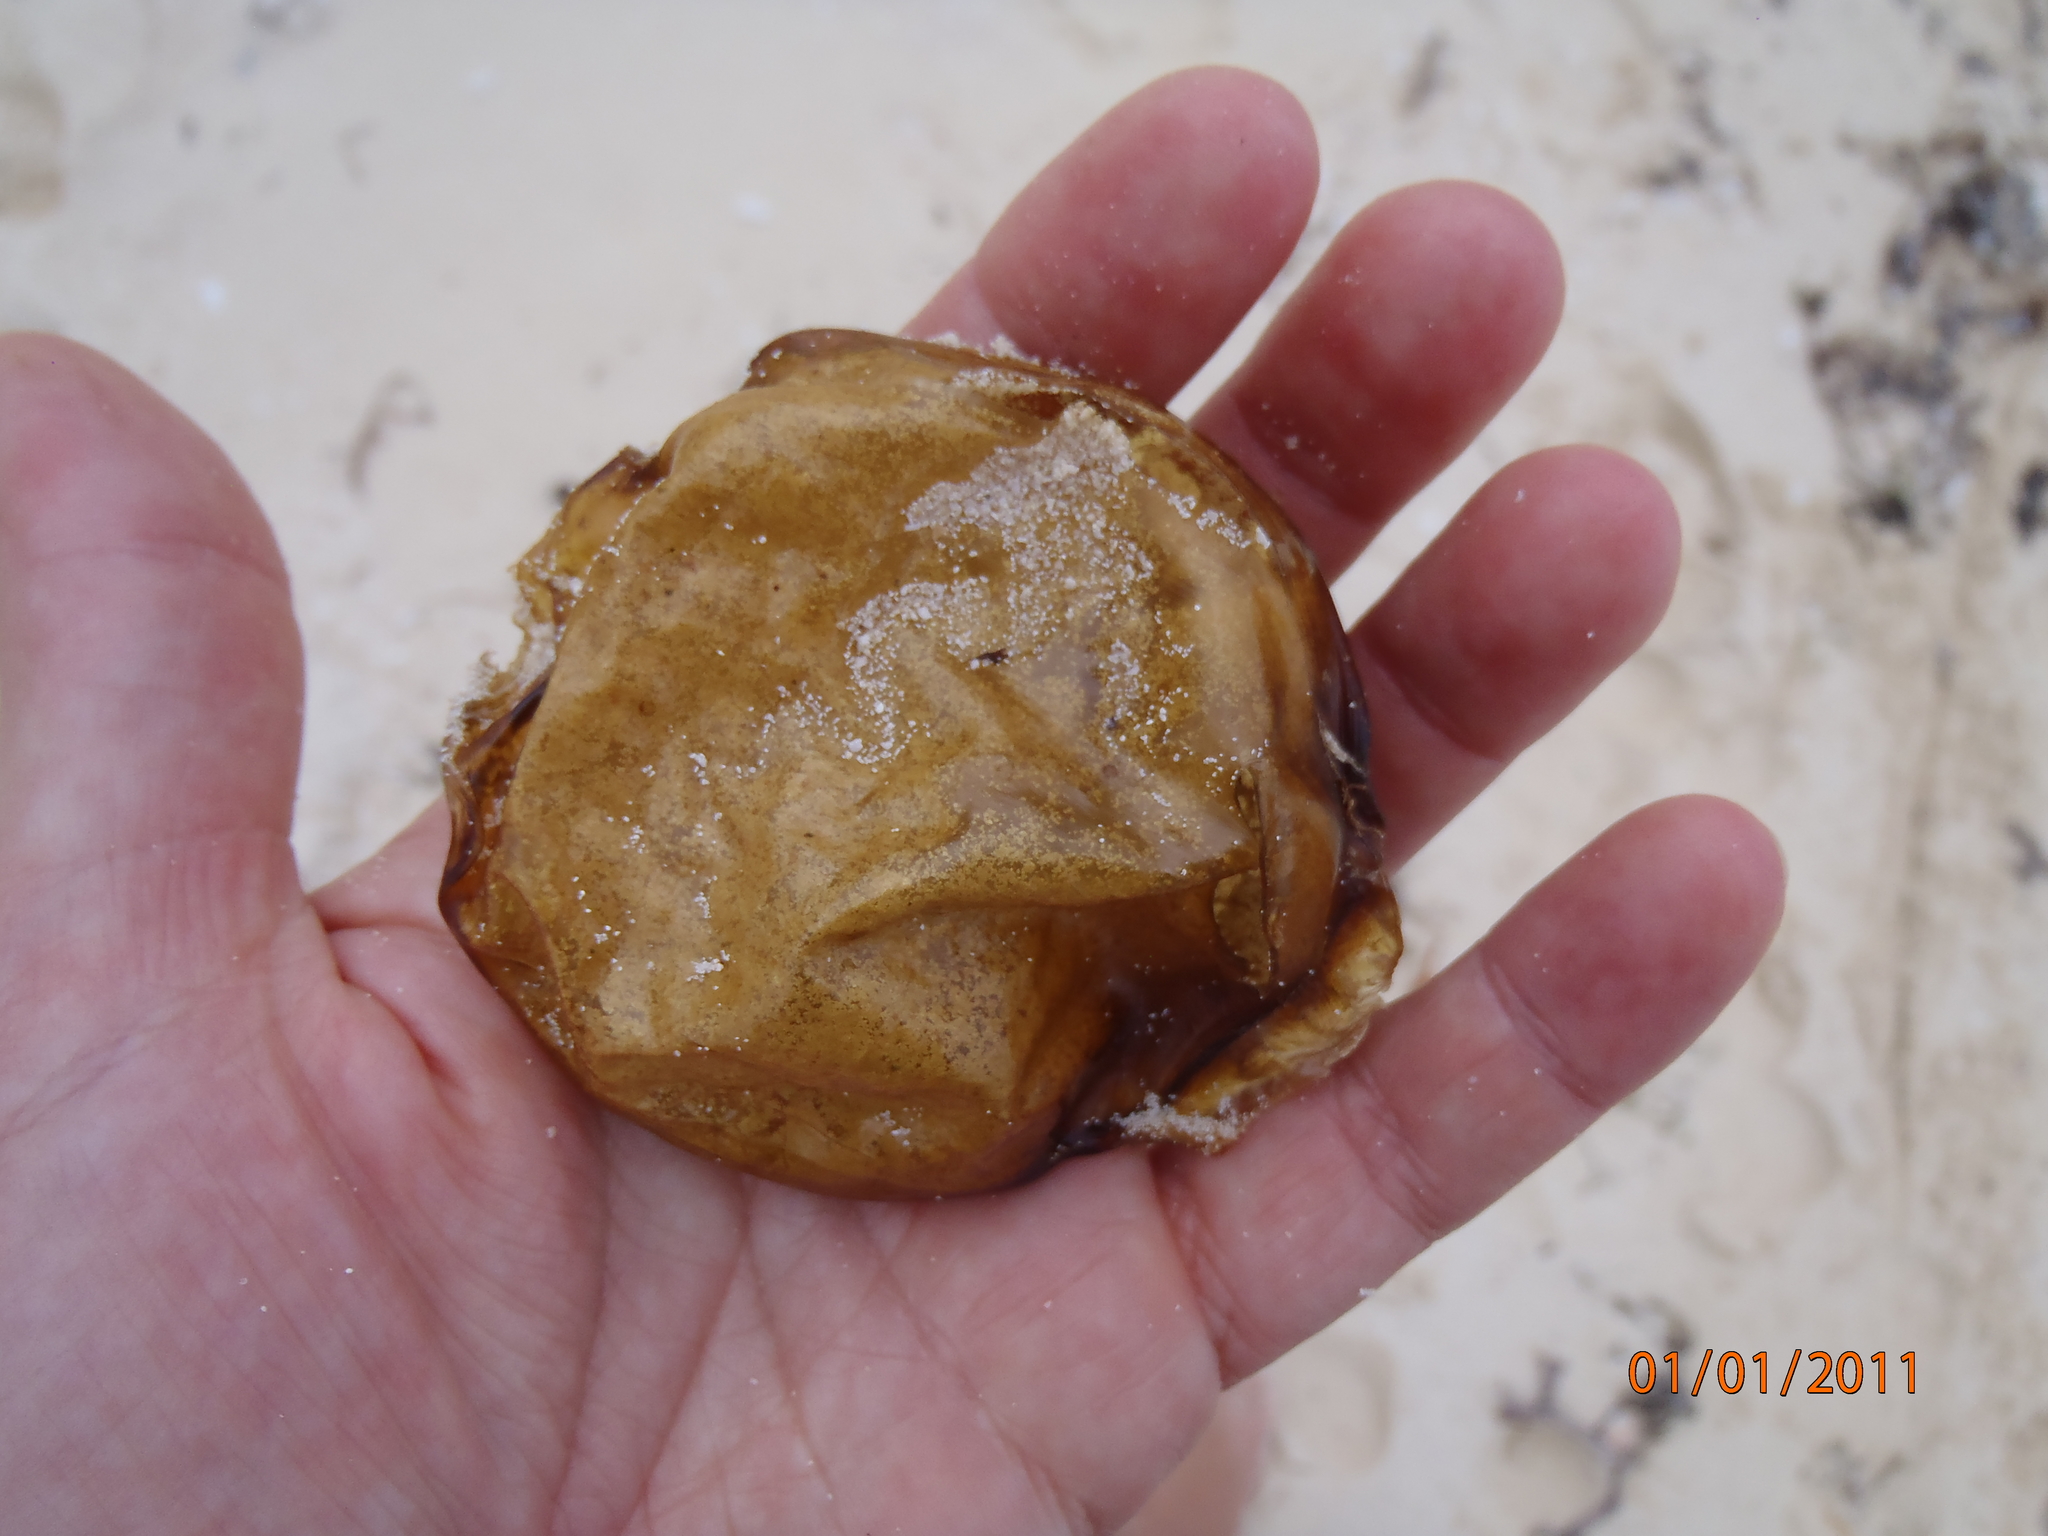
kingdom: Animalia
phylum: Chordata
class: Elasmobranchii
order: Orectolobiformes
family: Ginglymostomatidae
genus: Nebrius
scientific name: Nebrius ferrugineus
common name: Tawny nurse shark
